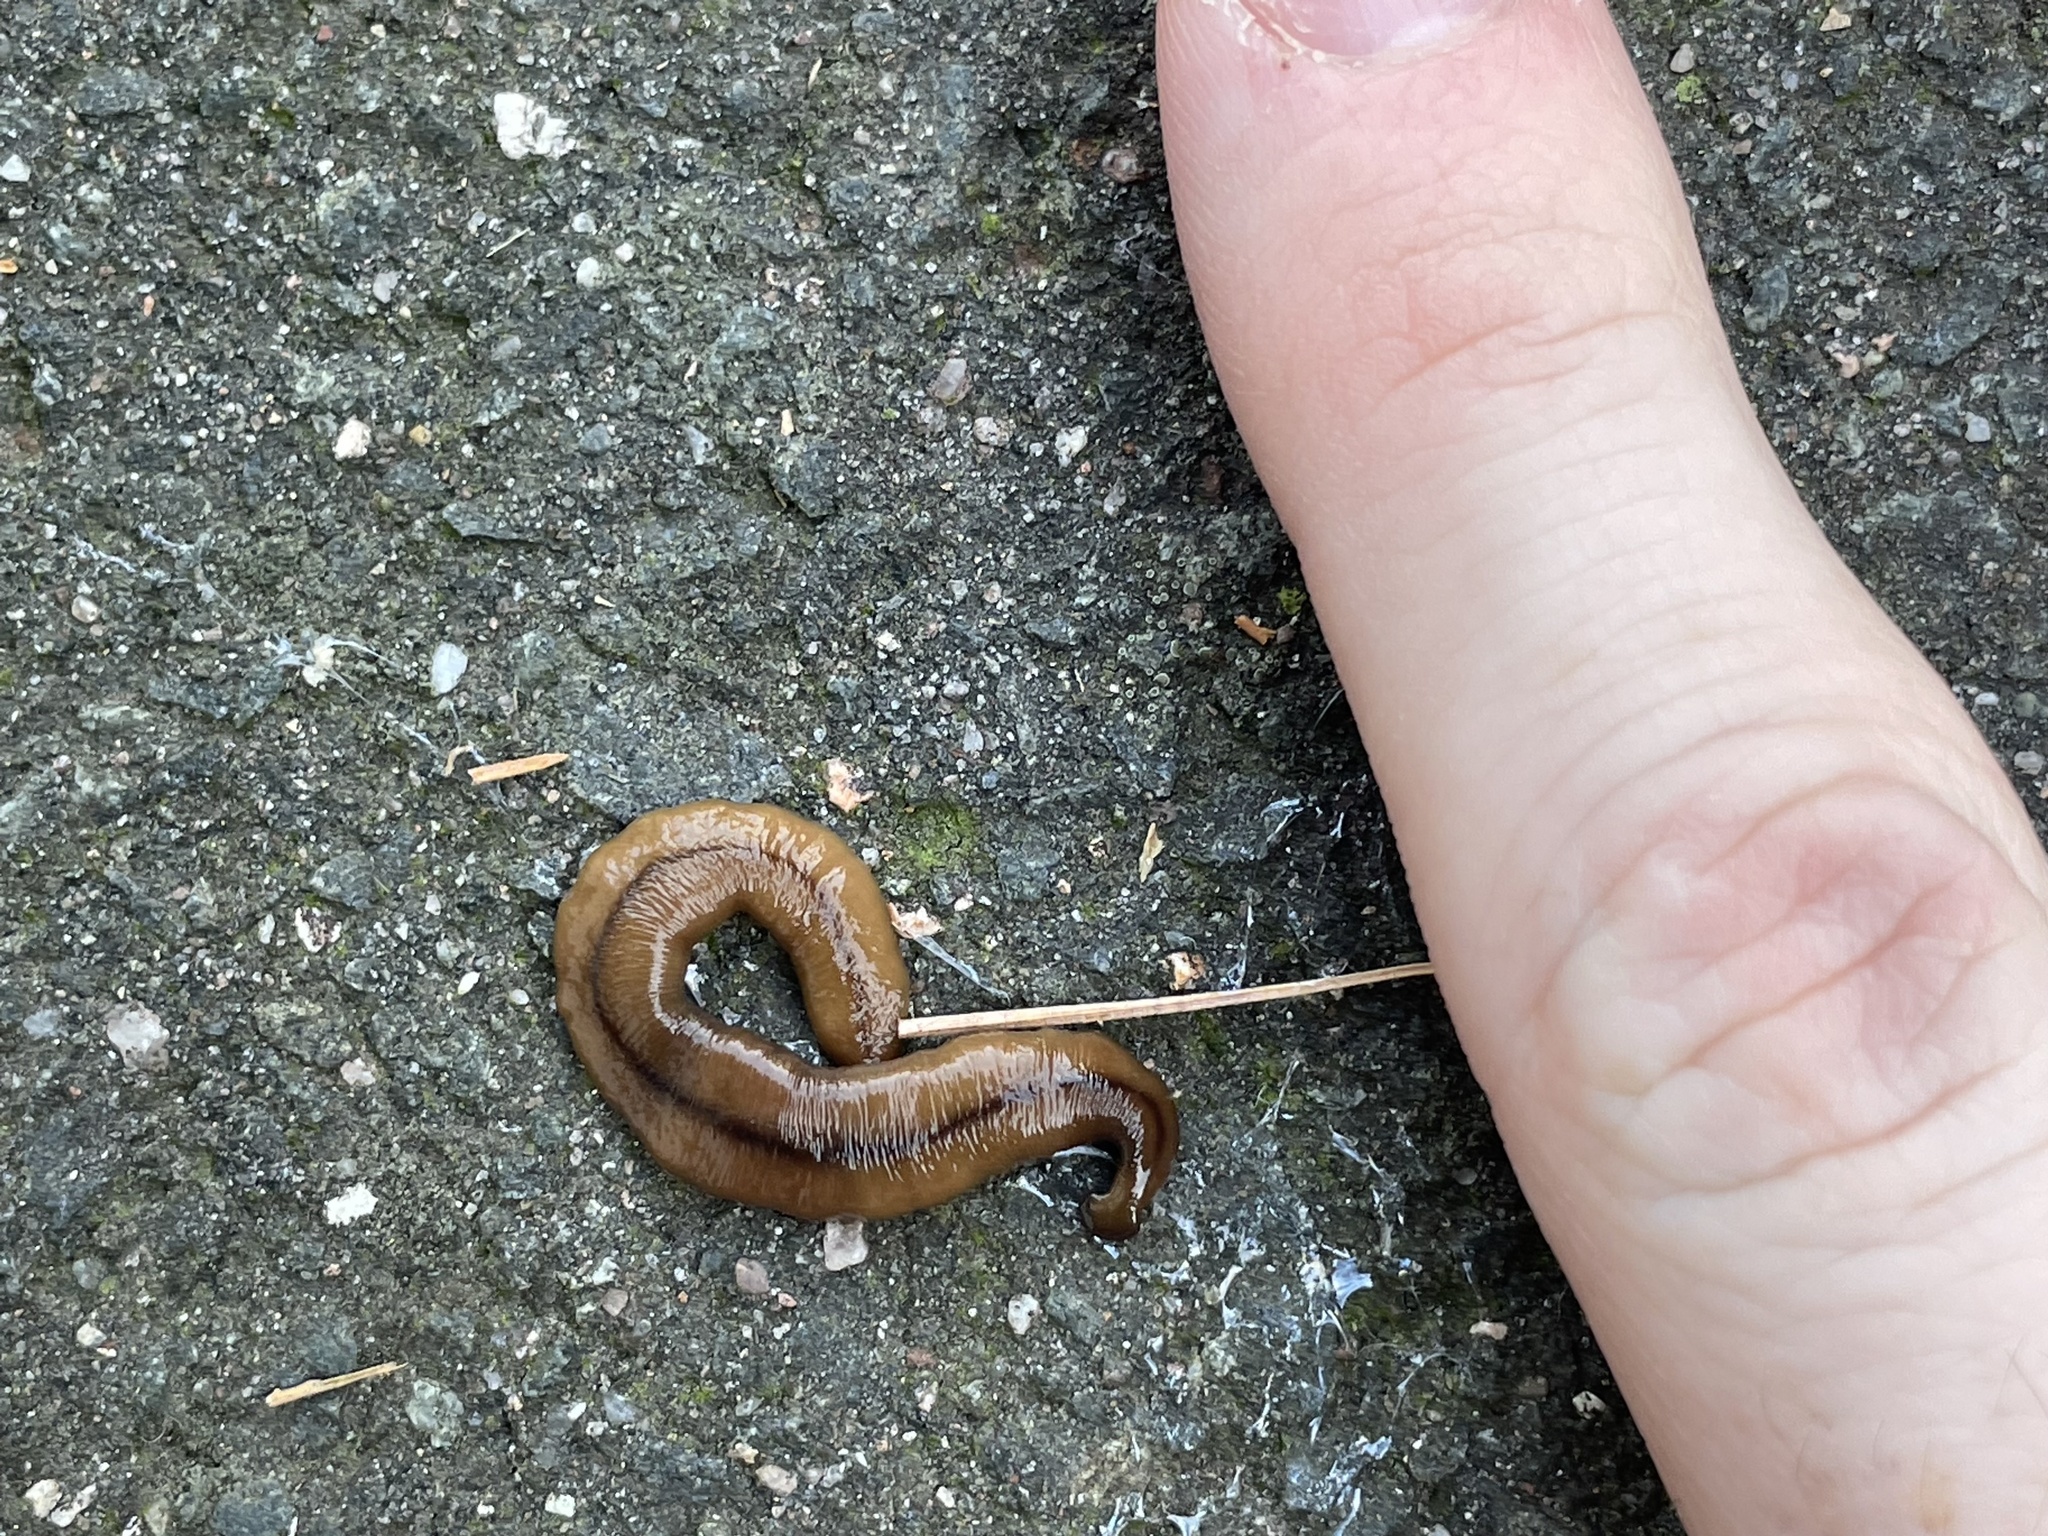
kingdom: Animalia
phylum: Platyhelminthes
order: Tricladida
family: Geoplanidae
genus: Bipalium
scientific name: Bipalium adventitium
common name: Land planarian
